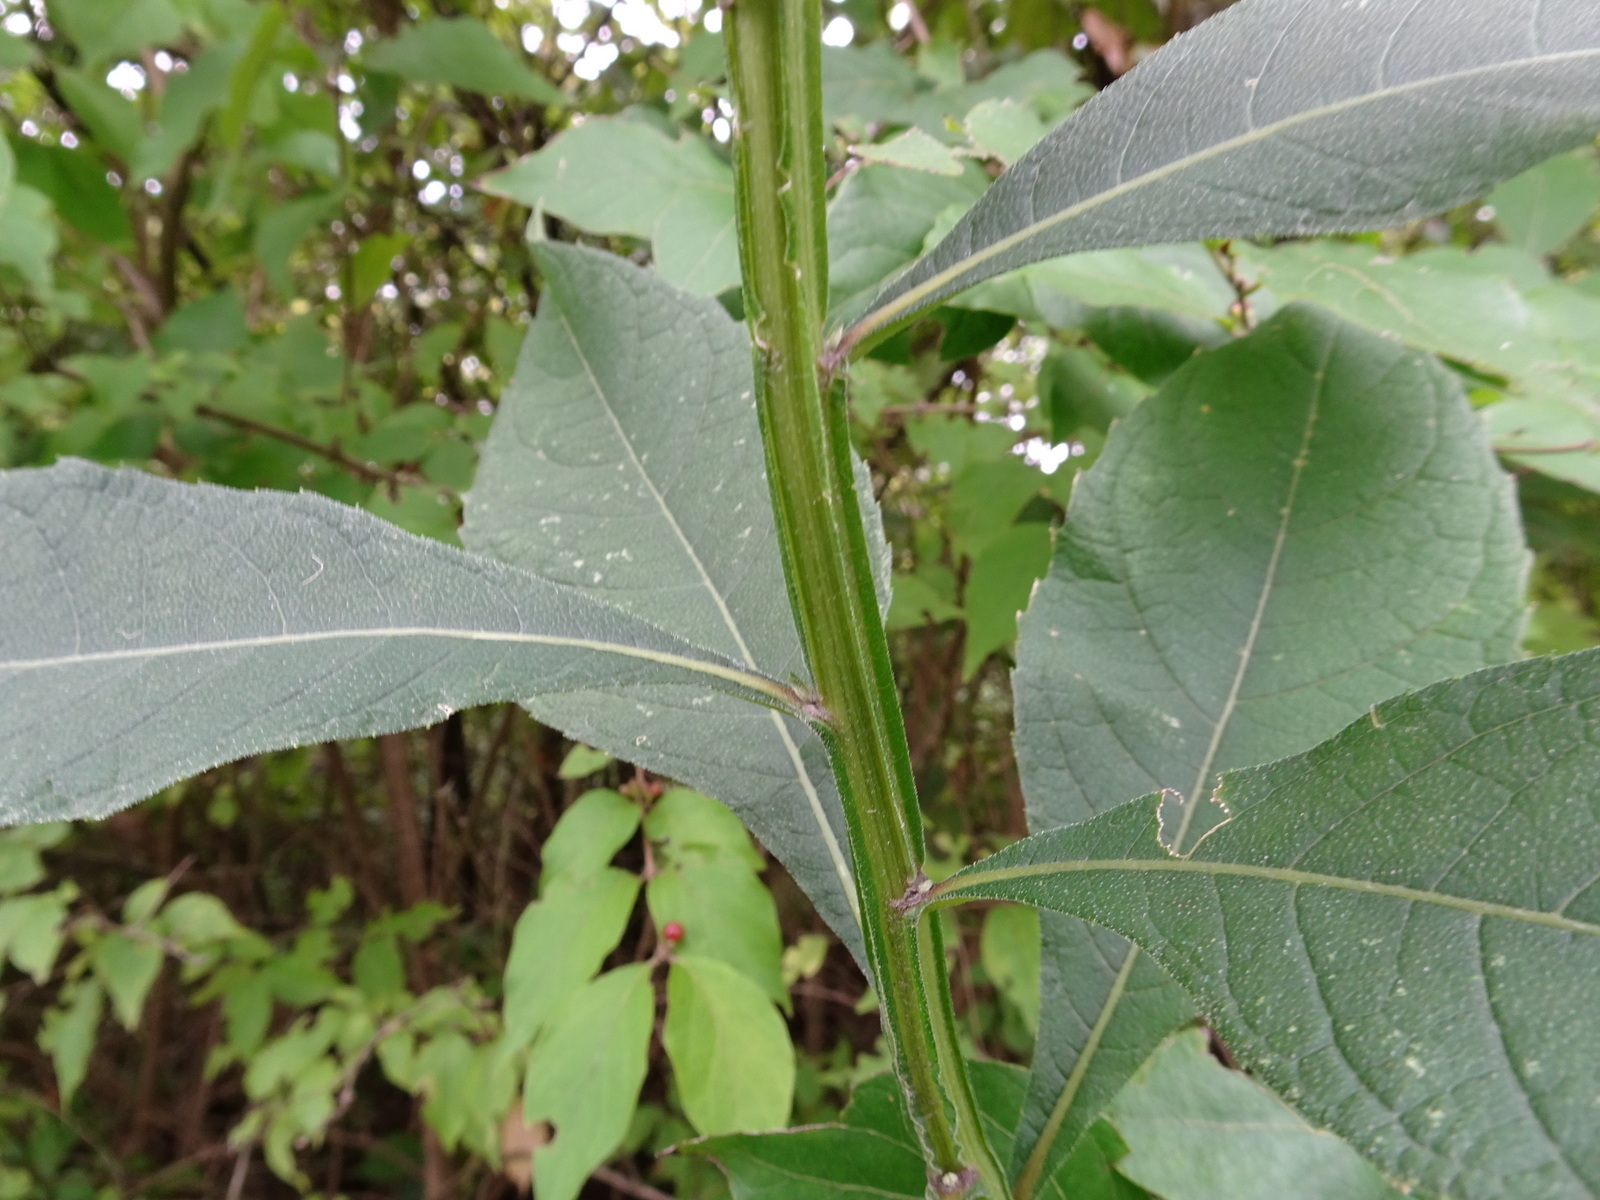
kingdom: Plantae
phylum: Tracheophyta
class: Magnoliopsida
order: Asterales
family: Asteraceae
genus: Verbesina
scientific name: Verbesina alternifolia
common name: Wingstem
